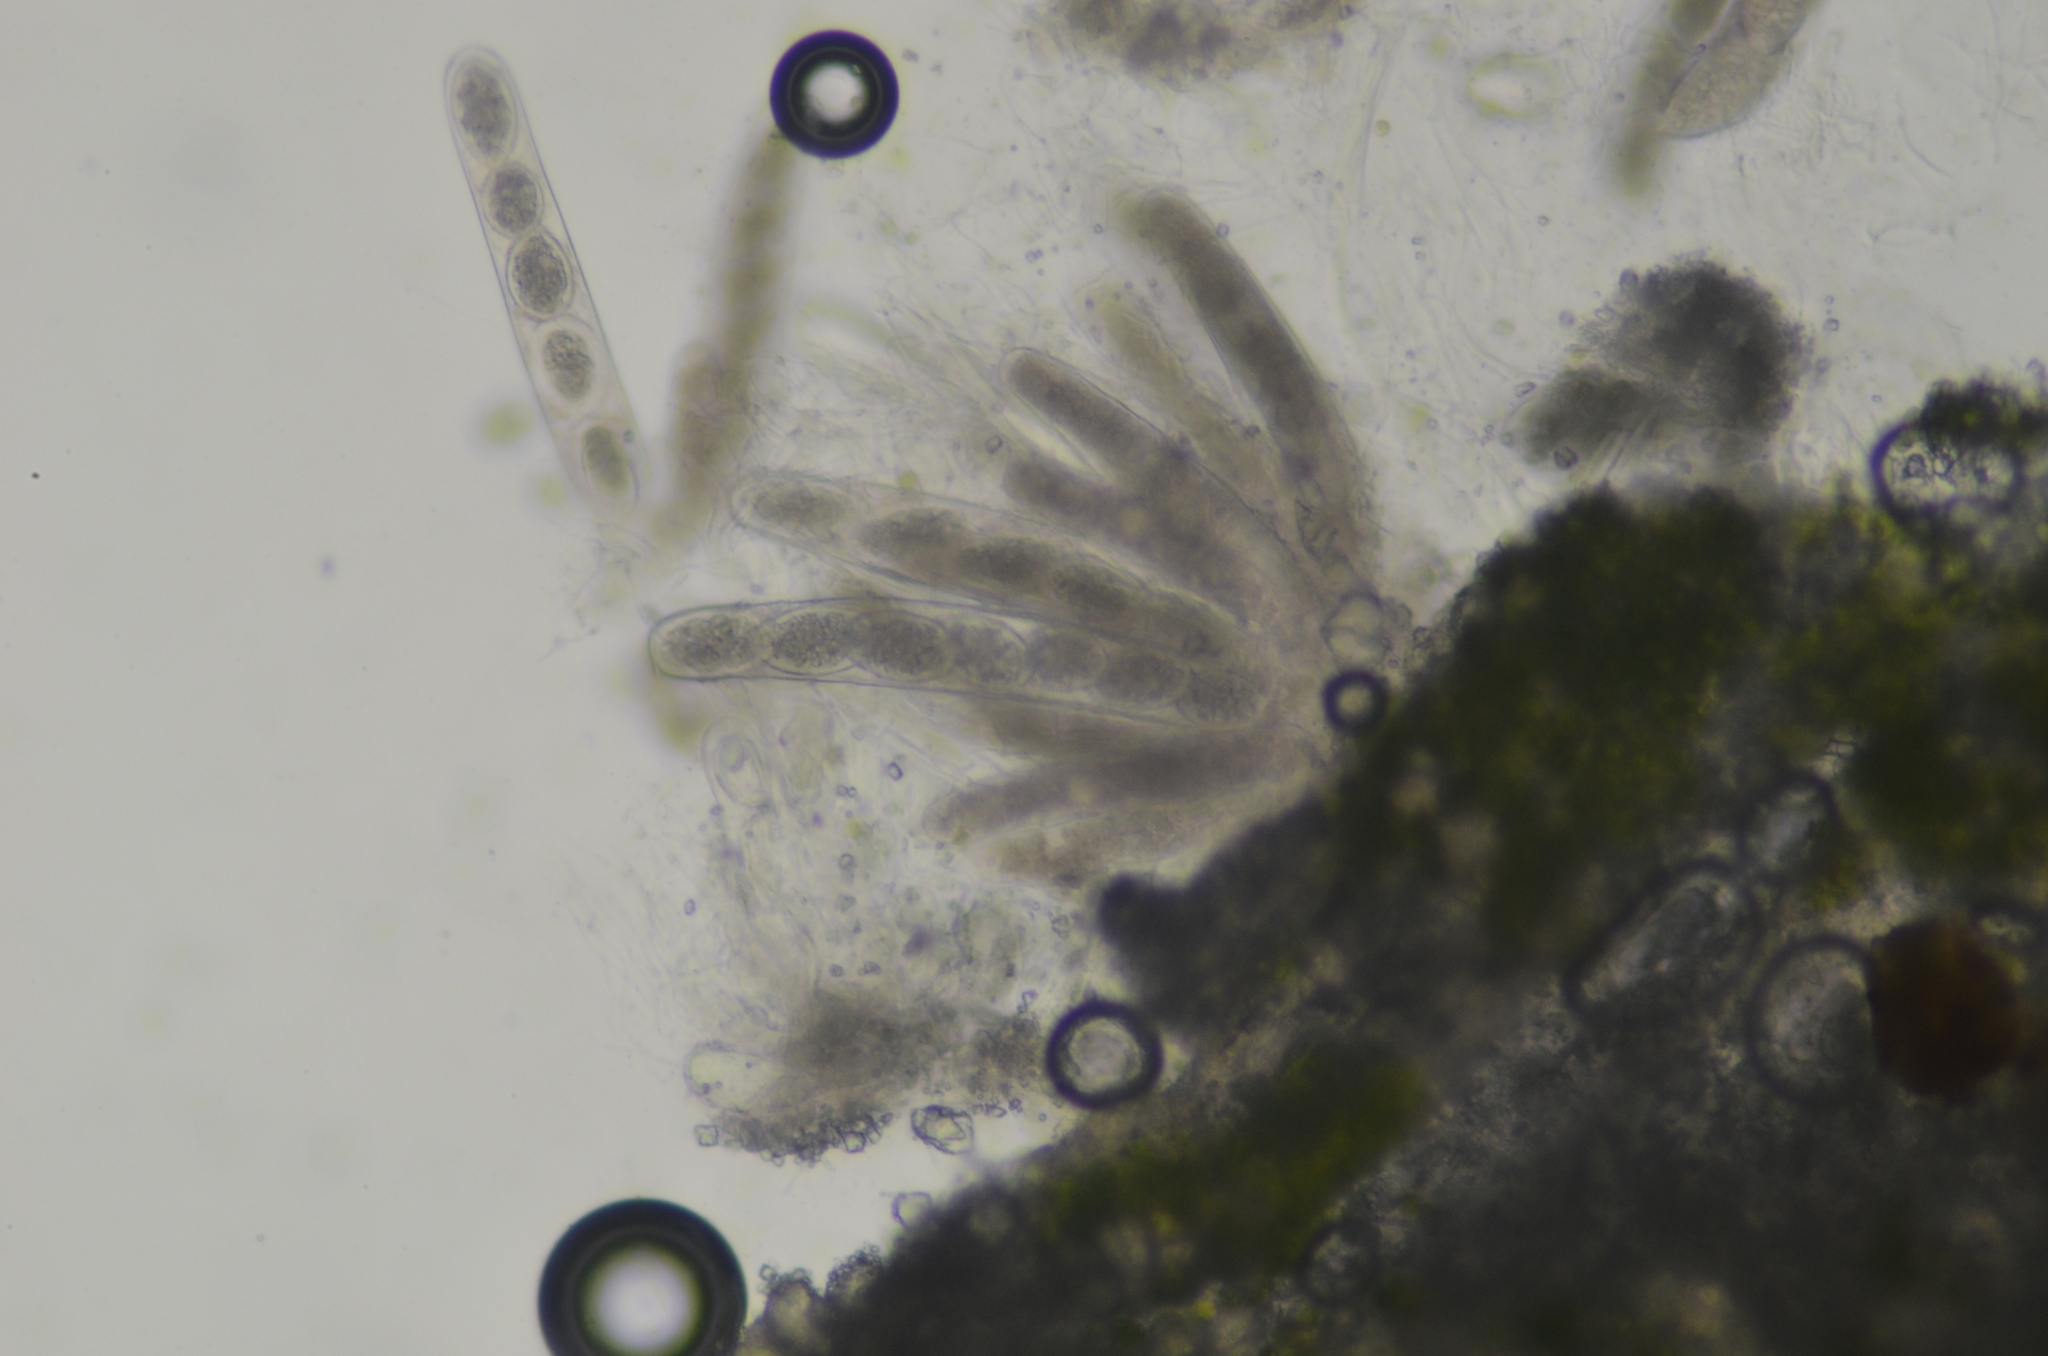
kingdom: Fungi
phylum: Ascomycota
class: Lecanoromycetes
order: Pertusariales
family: Pertusariaceae
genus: Pertusaria
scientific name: Pertusaria sommerfeltii
